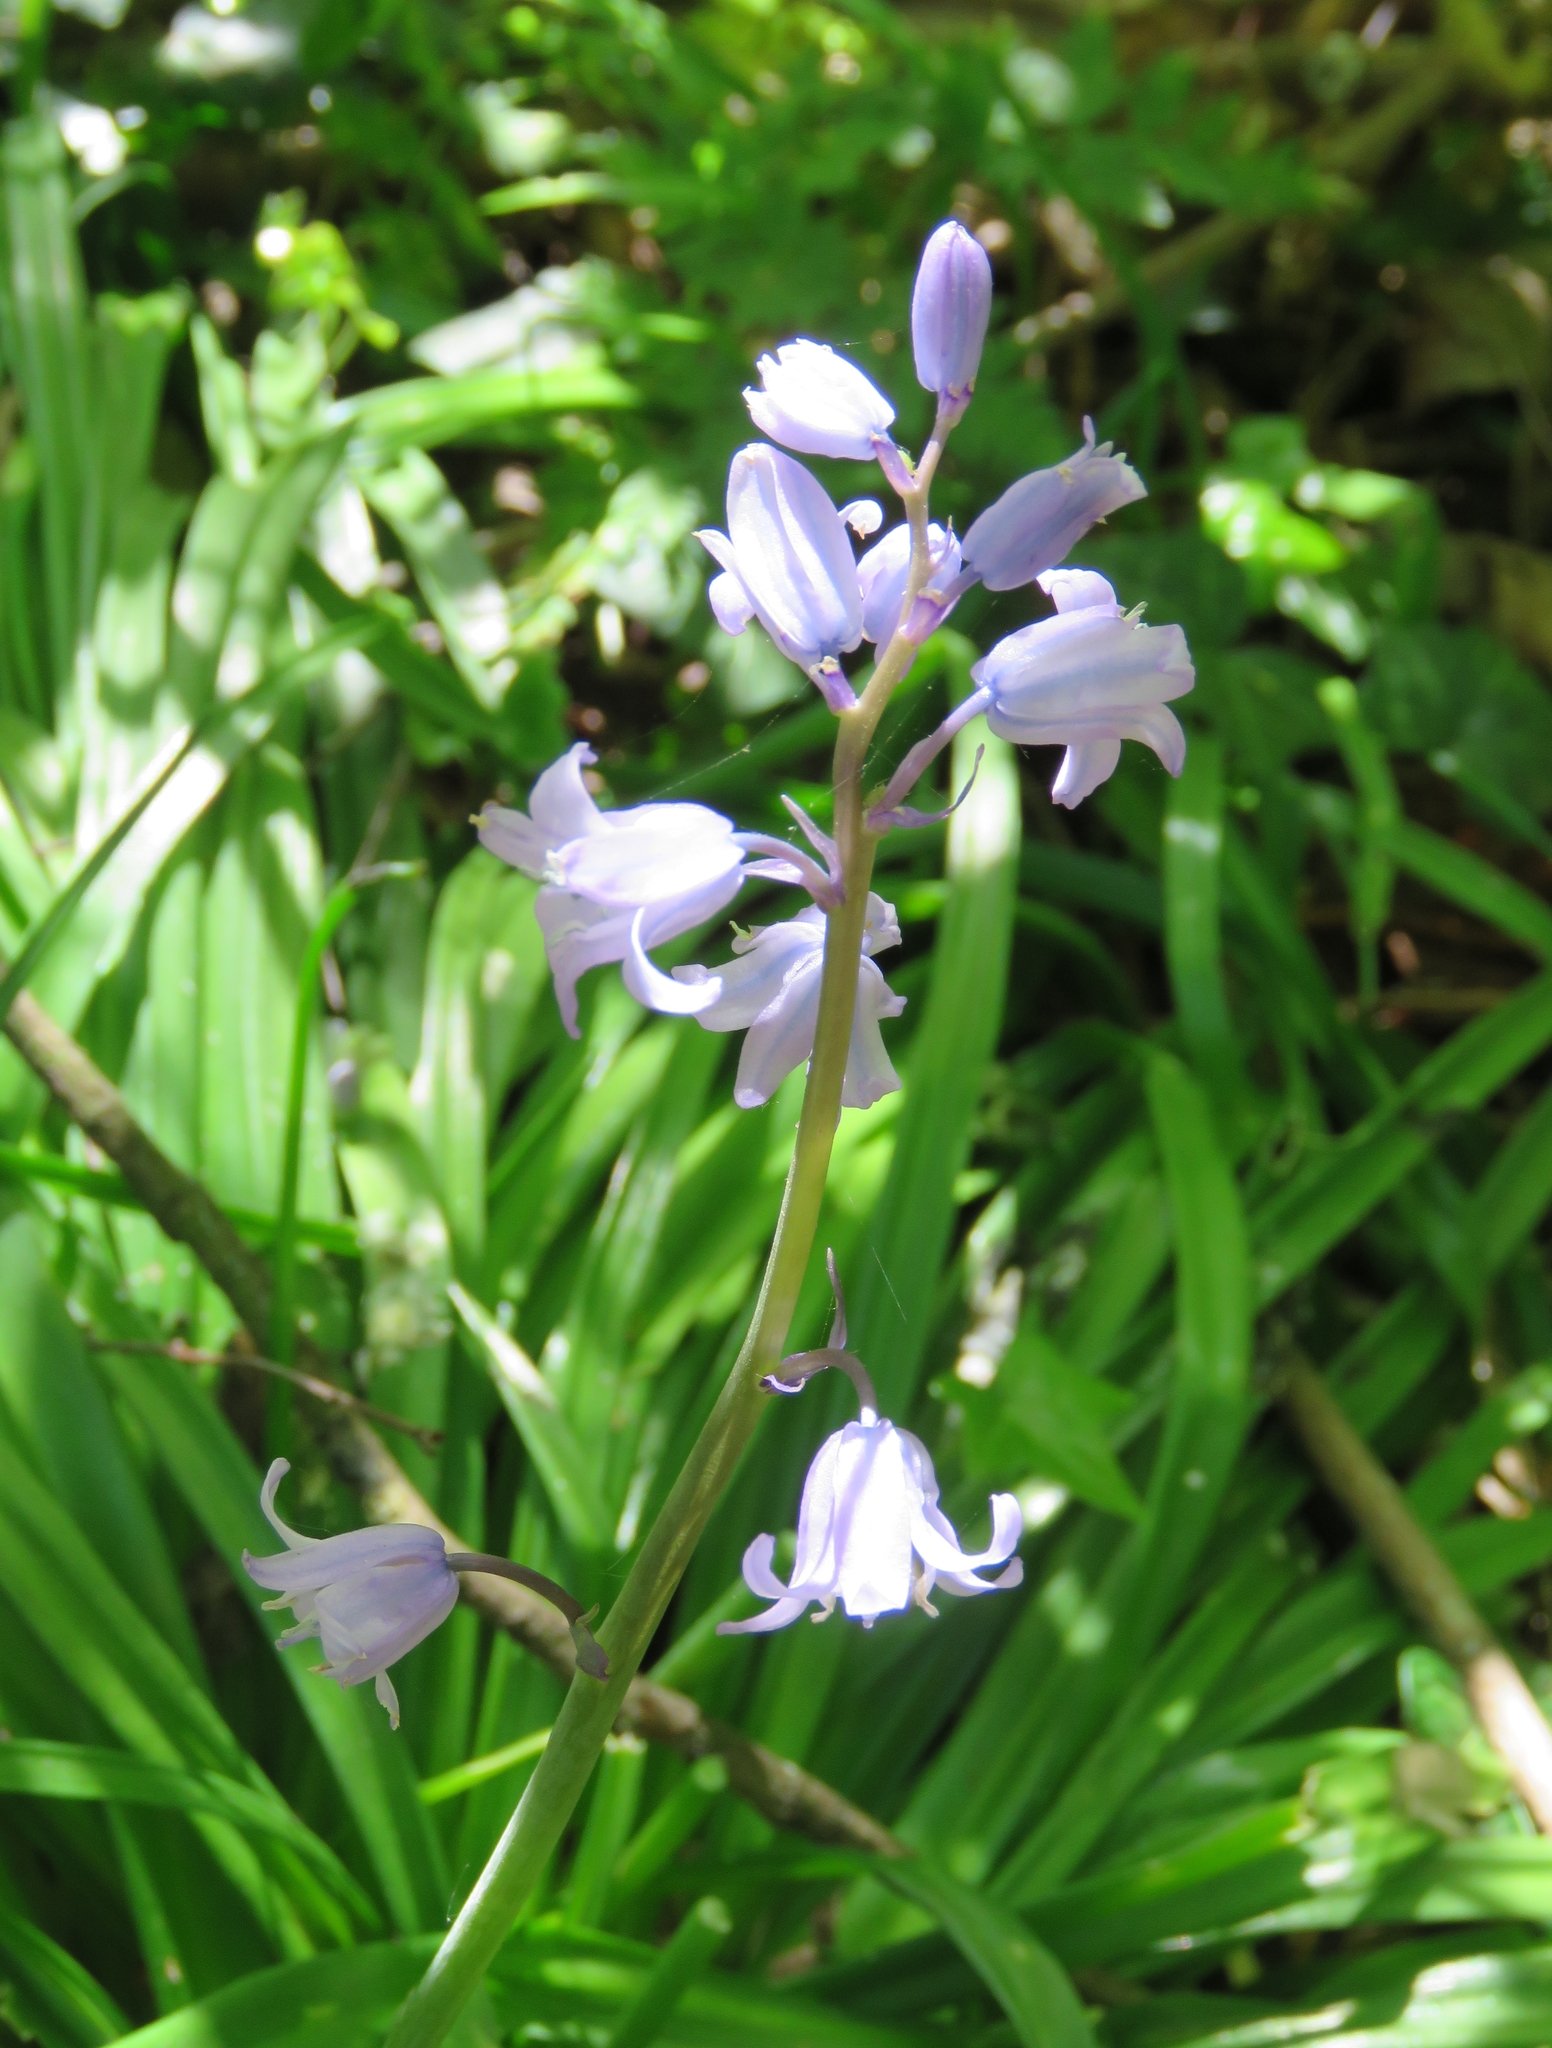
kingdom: Plantae
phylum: Tracheophyta
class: Liliopsida
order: Asparagales
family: Asparagaceae
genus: Hyacinthoides
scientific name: Hyacinthoides massartiana
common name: Hyacinthoides
